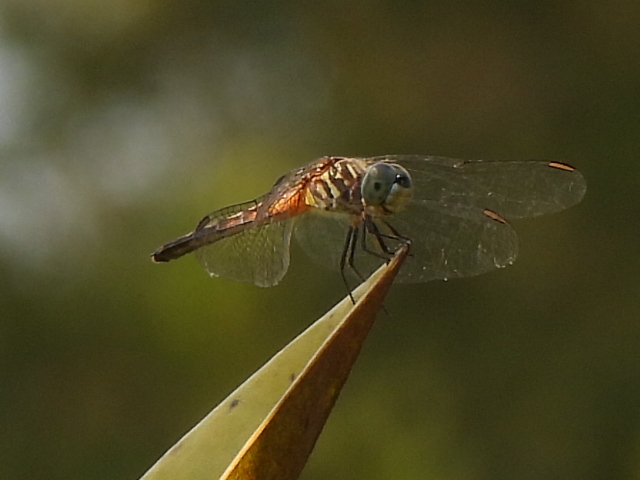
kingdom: Animalia
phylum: Arthropoda
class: Insecta
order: Odonata
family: Libellulidae
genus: Pachydiplax
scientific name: Pachydiplax longipennis
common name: Blue dasher
